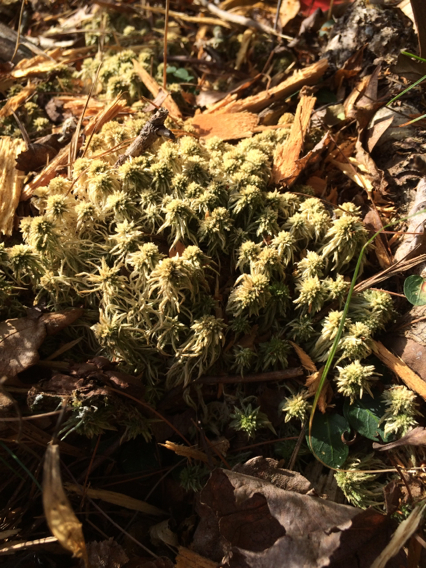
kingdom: Plantae
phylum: Bryophyta
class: Sphagnopsida
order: Sphagnales
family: Sphagnaceae
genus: Sphagnum
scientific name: Sphagnum
